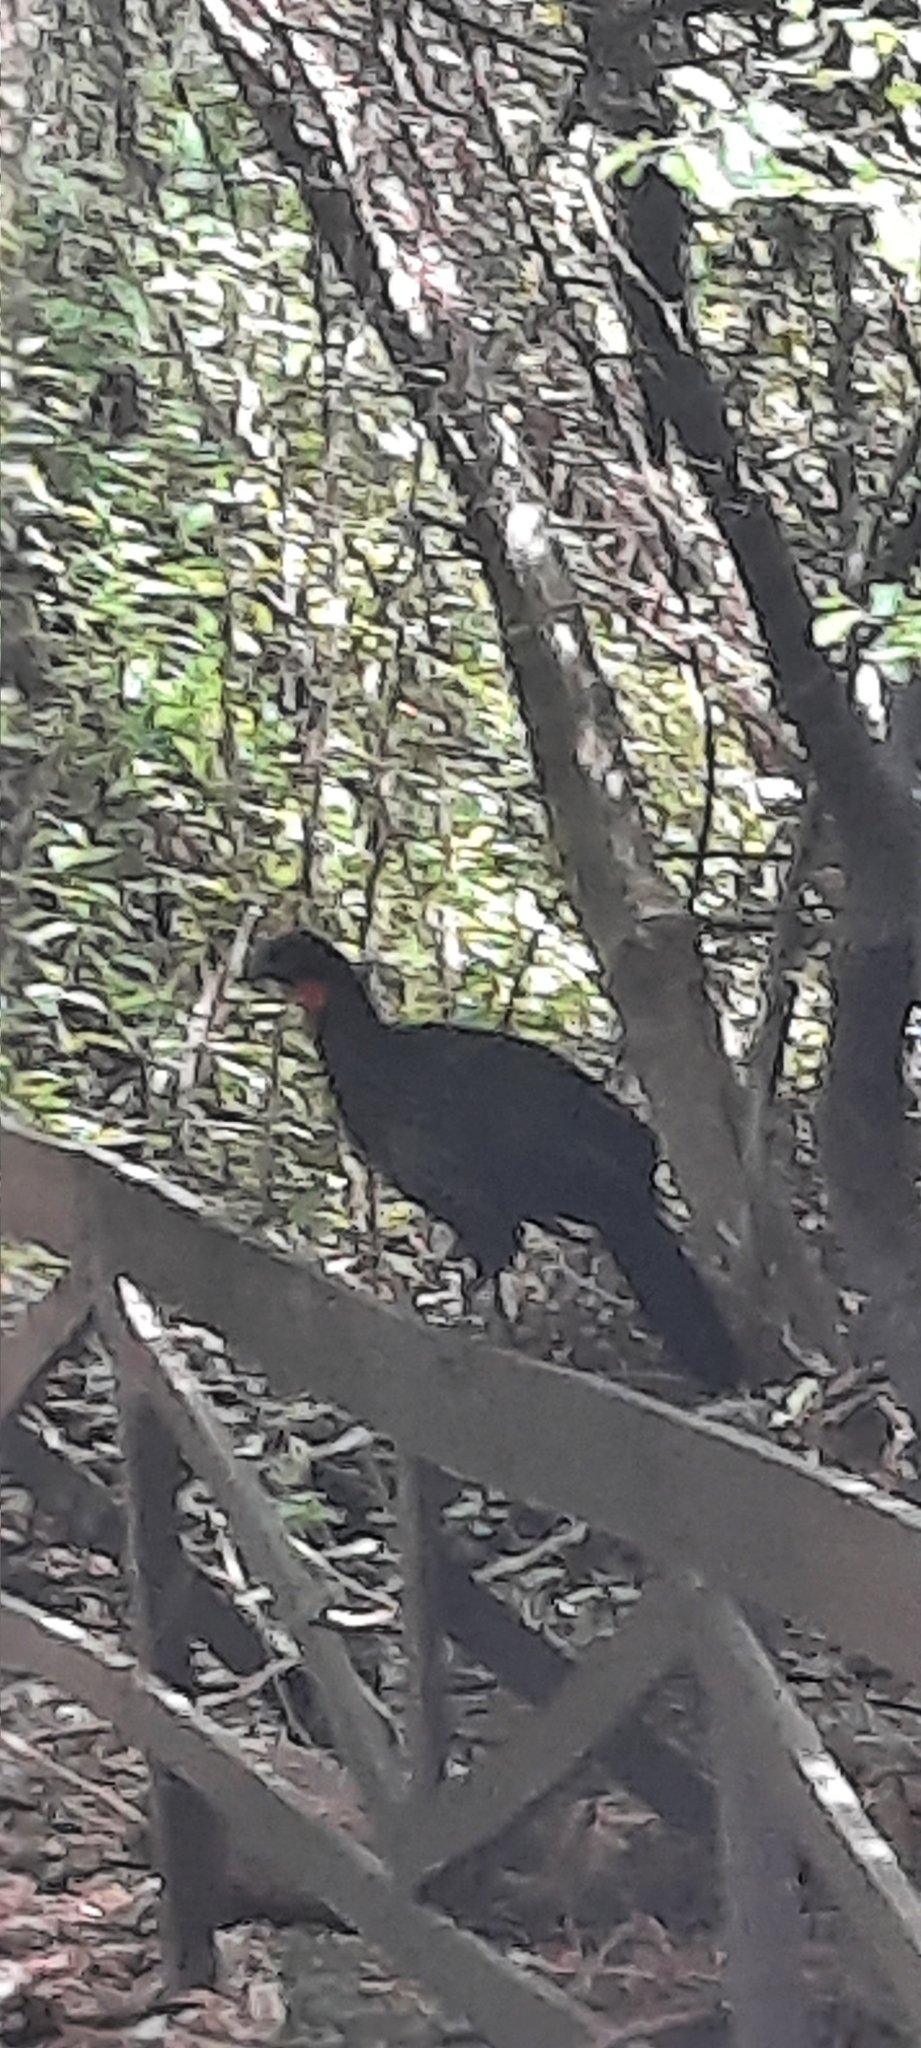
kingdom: Animalia
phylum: Chordata
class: Aves
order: Galliformes
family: Cracidae
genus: Penelope
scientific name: Penelope obscura
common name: Dusky-legged guan
